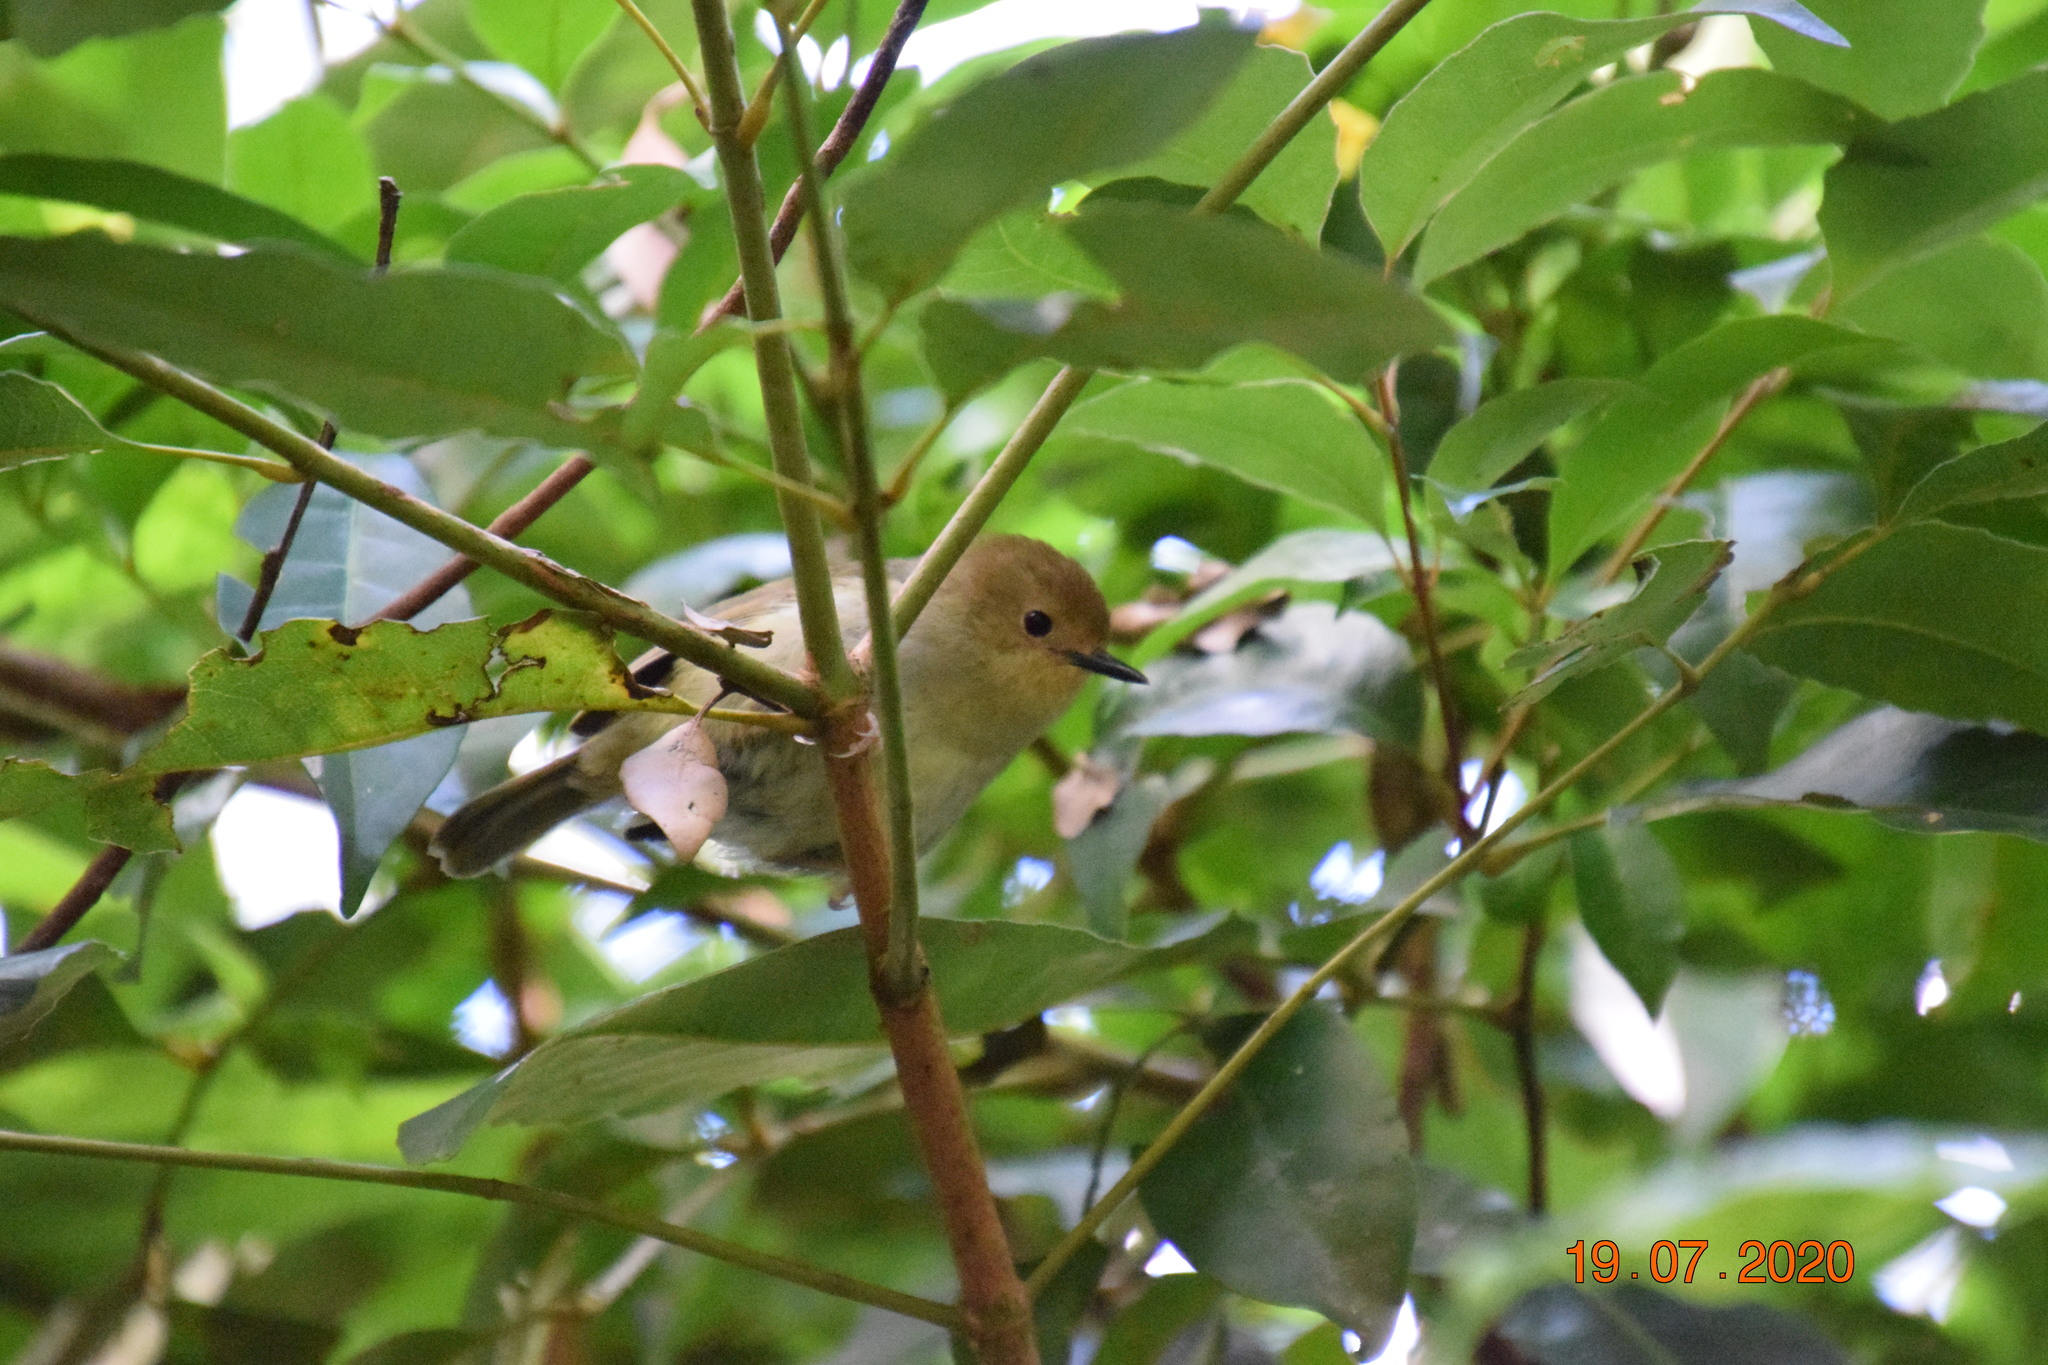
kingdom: Animalia
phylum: Chordata
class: Aves
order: Passeriformes
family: Acanthizidae
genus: Sericornis
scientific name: Sericornis magnirostra
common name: Large-billed scrubwren
